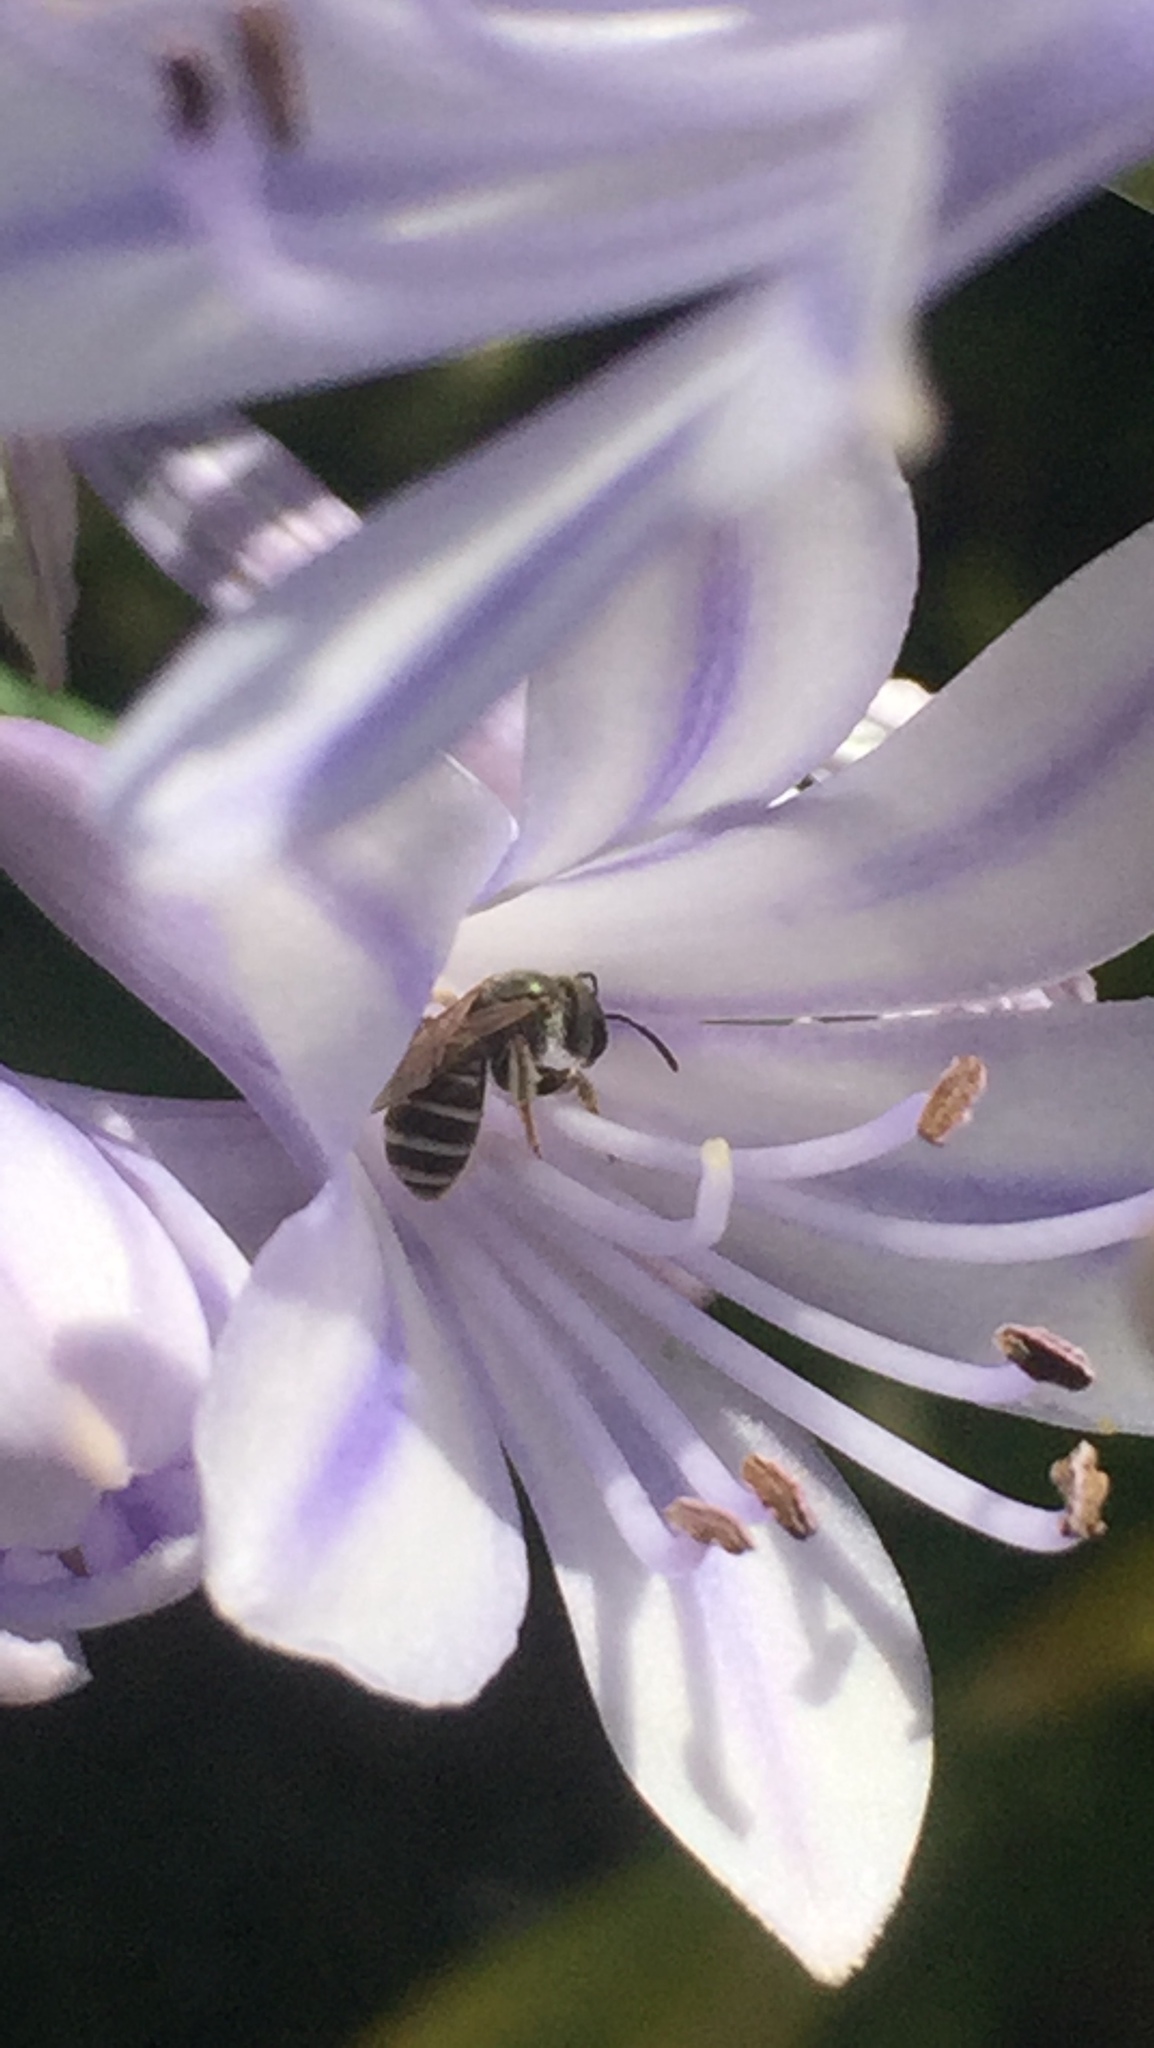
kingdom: Animalia
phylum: Arthropoda
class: Insecta
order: Hymenoptera
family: Halictidae
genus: Halictus
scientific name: Halictus tripartitus
